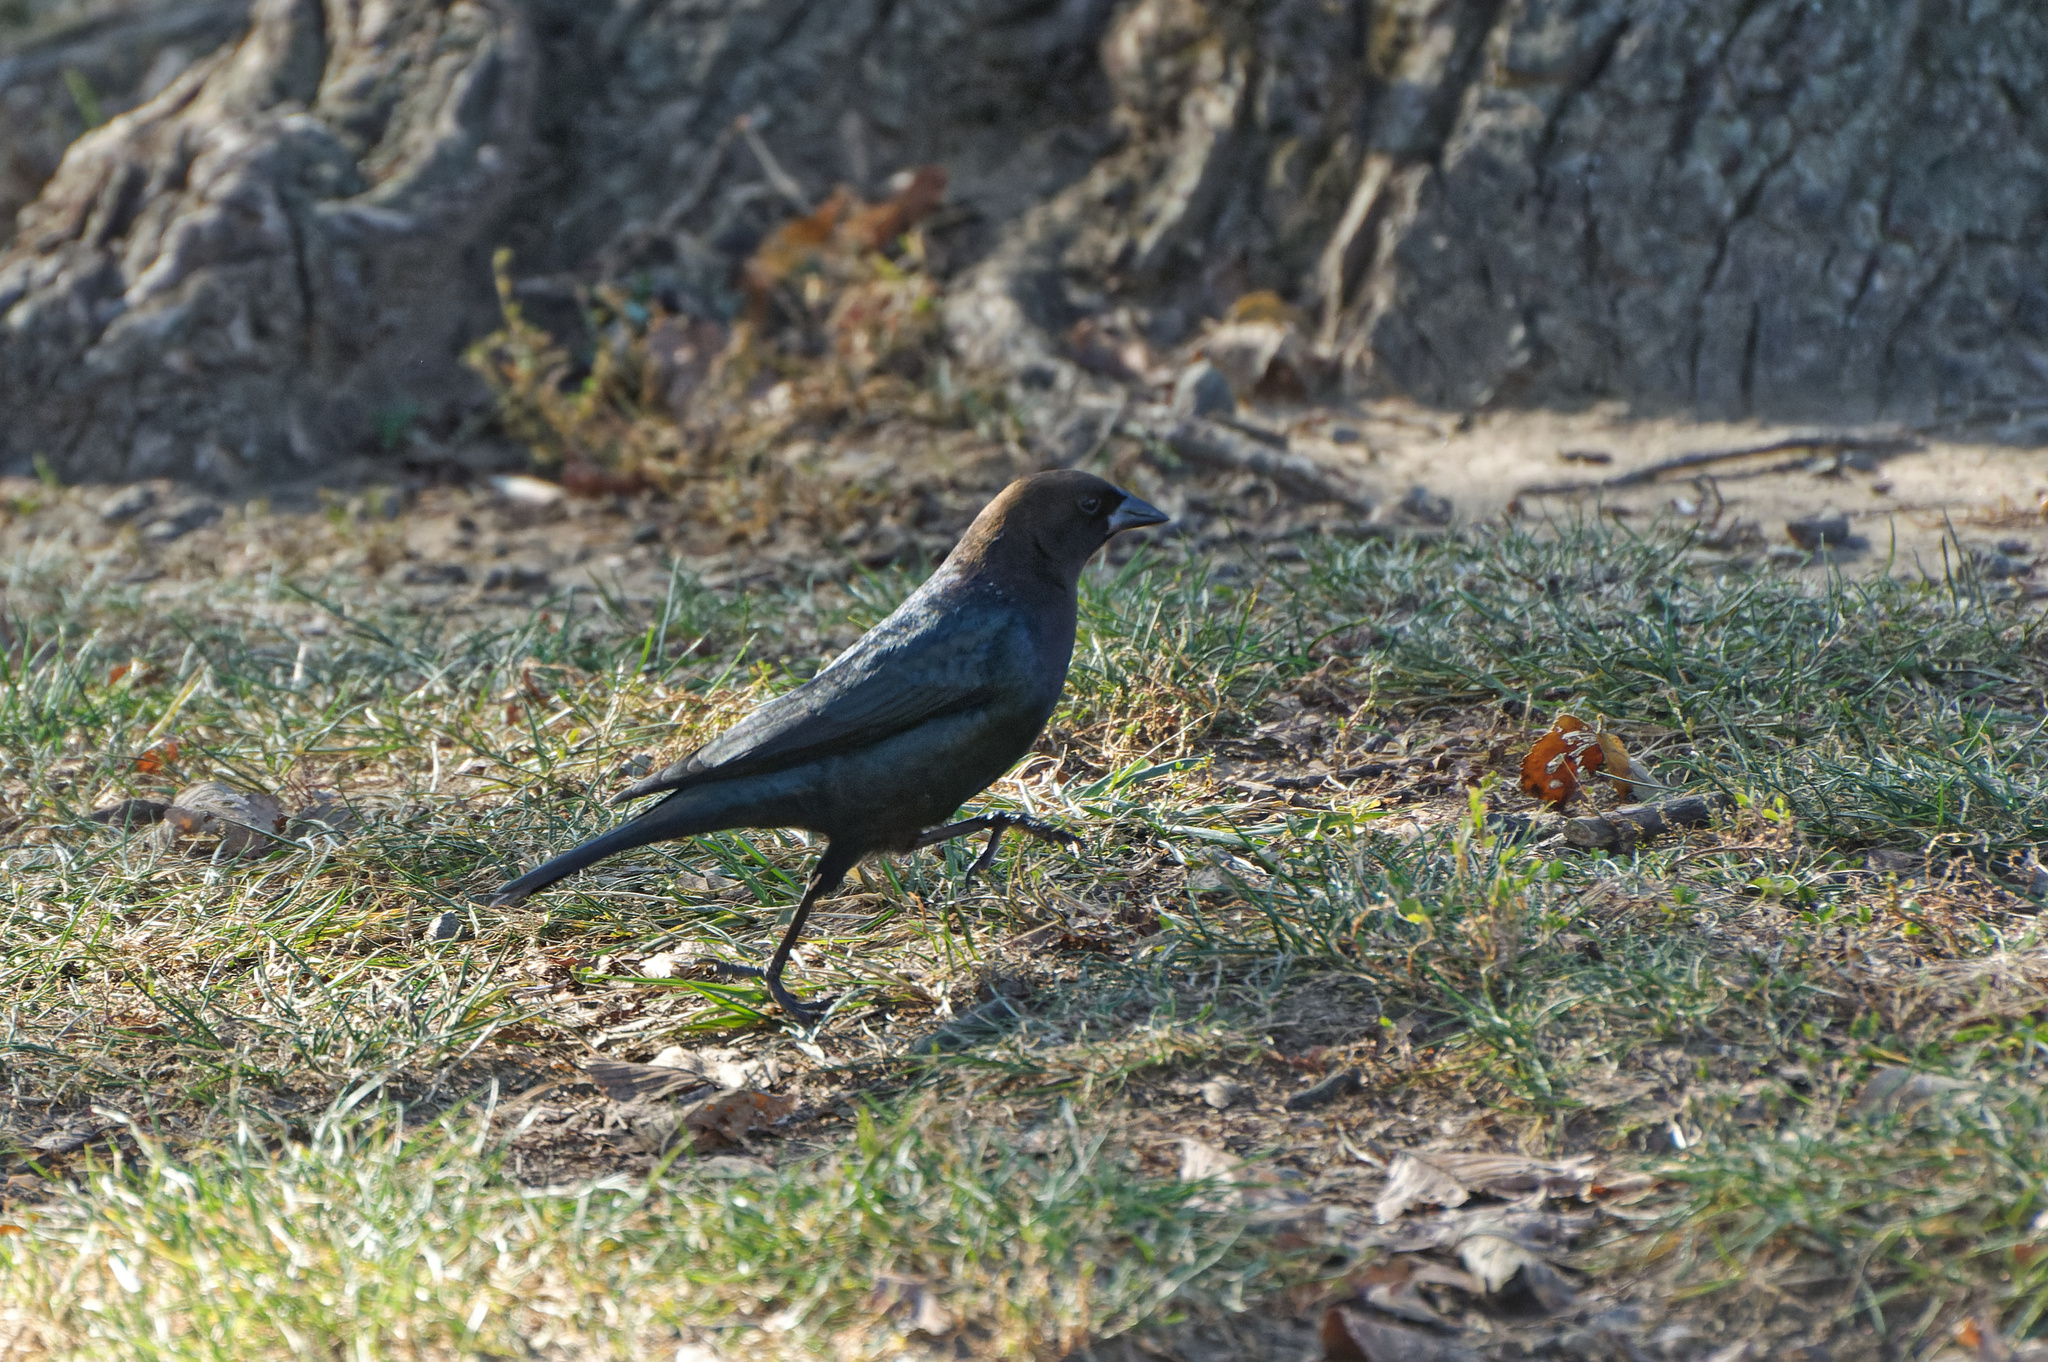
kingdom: Animalia
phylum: Chordata
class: Aves
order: Passeriformes
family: Icteridae
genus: Molothrus
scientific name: Molothrus ater
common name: Brown-headed cowbird
